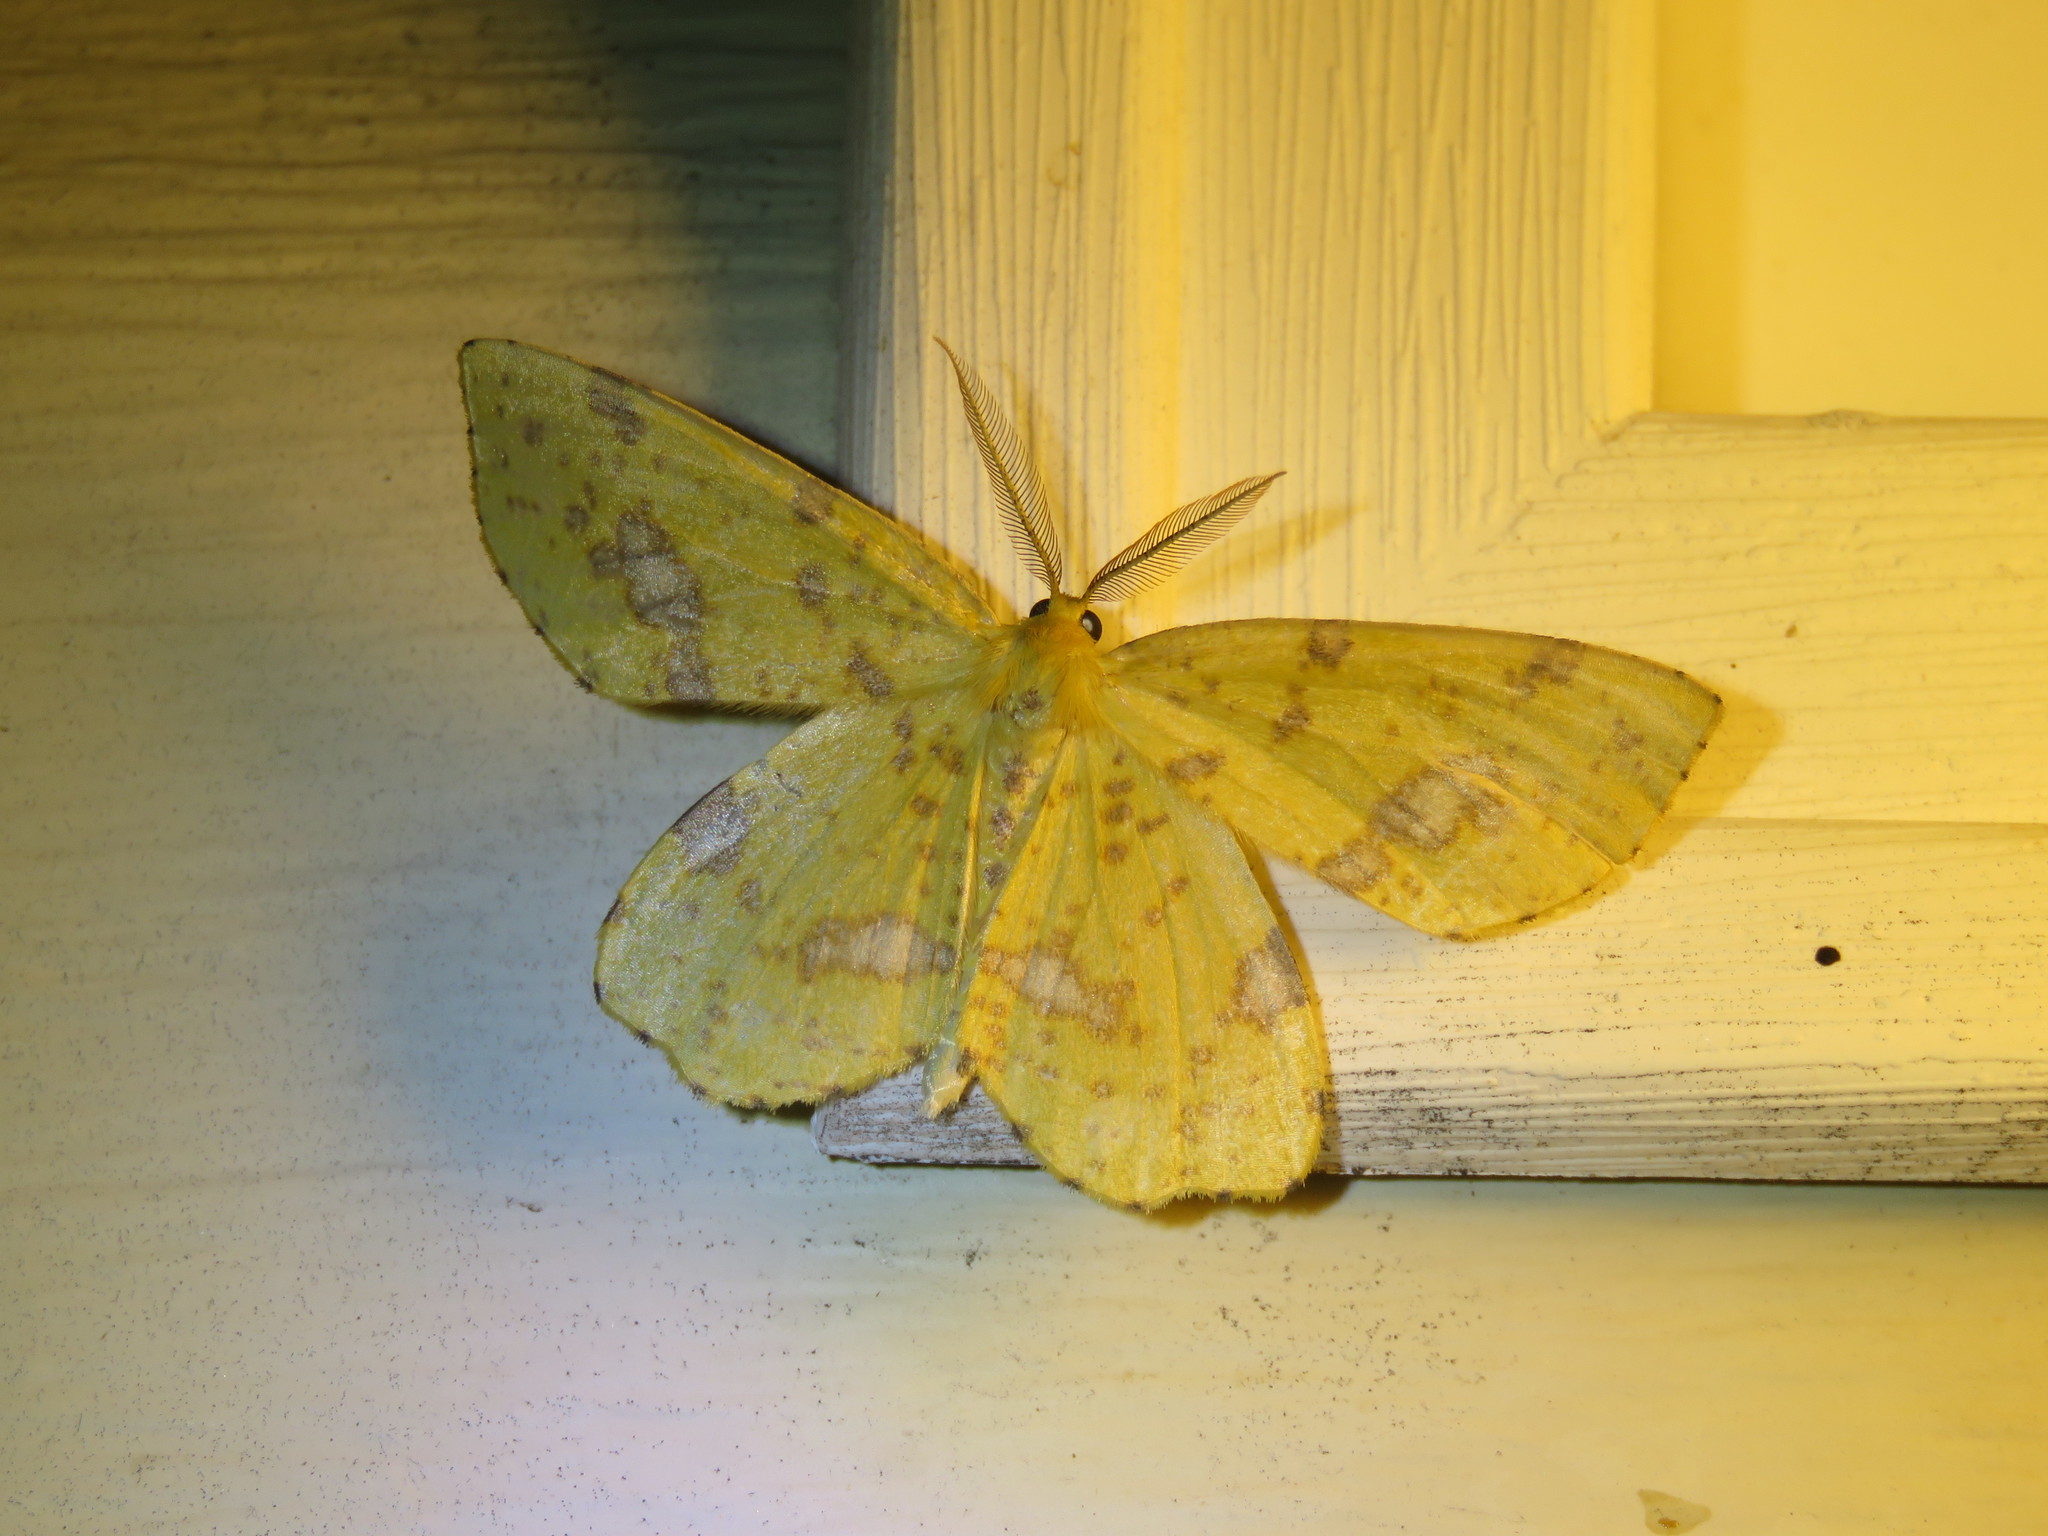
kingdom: Animalia
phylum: Arthropoda
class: Insecta
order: Lepidoptera
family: Geometridae
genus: Xanthotype
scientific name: Xanthotype
